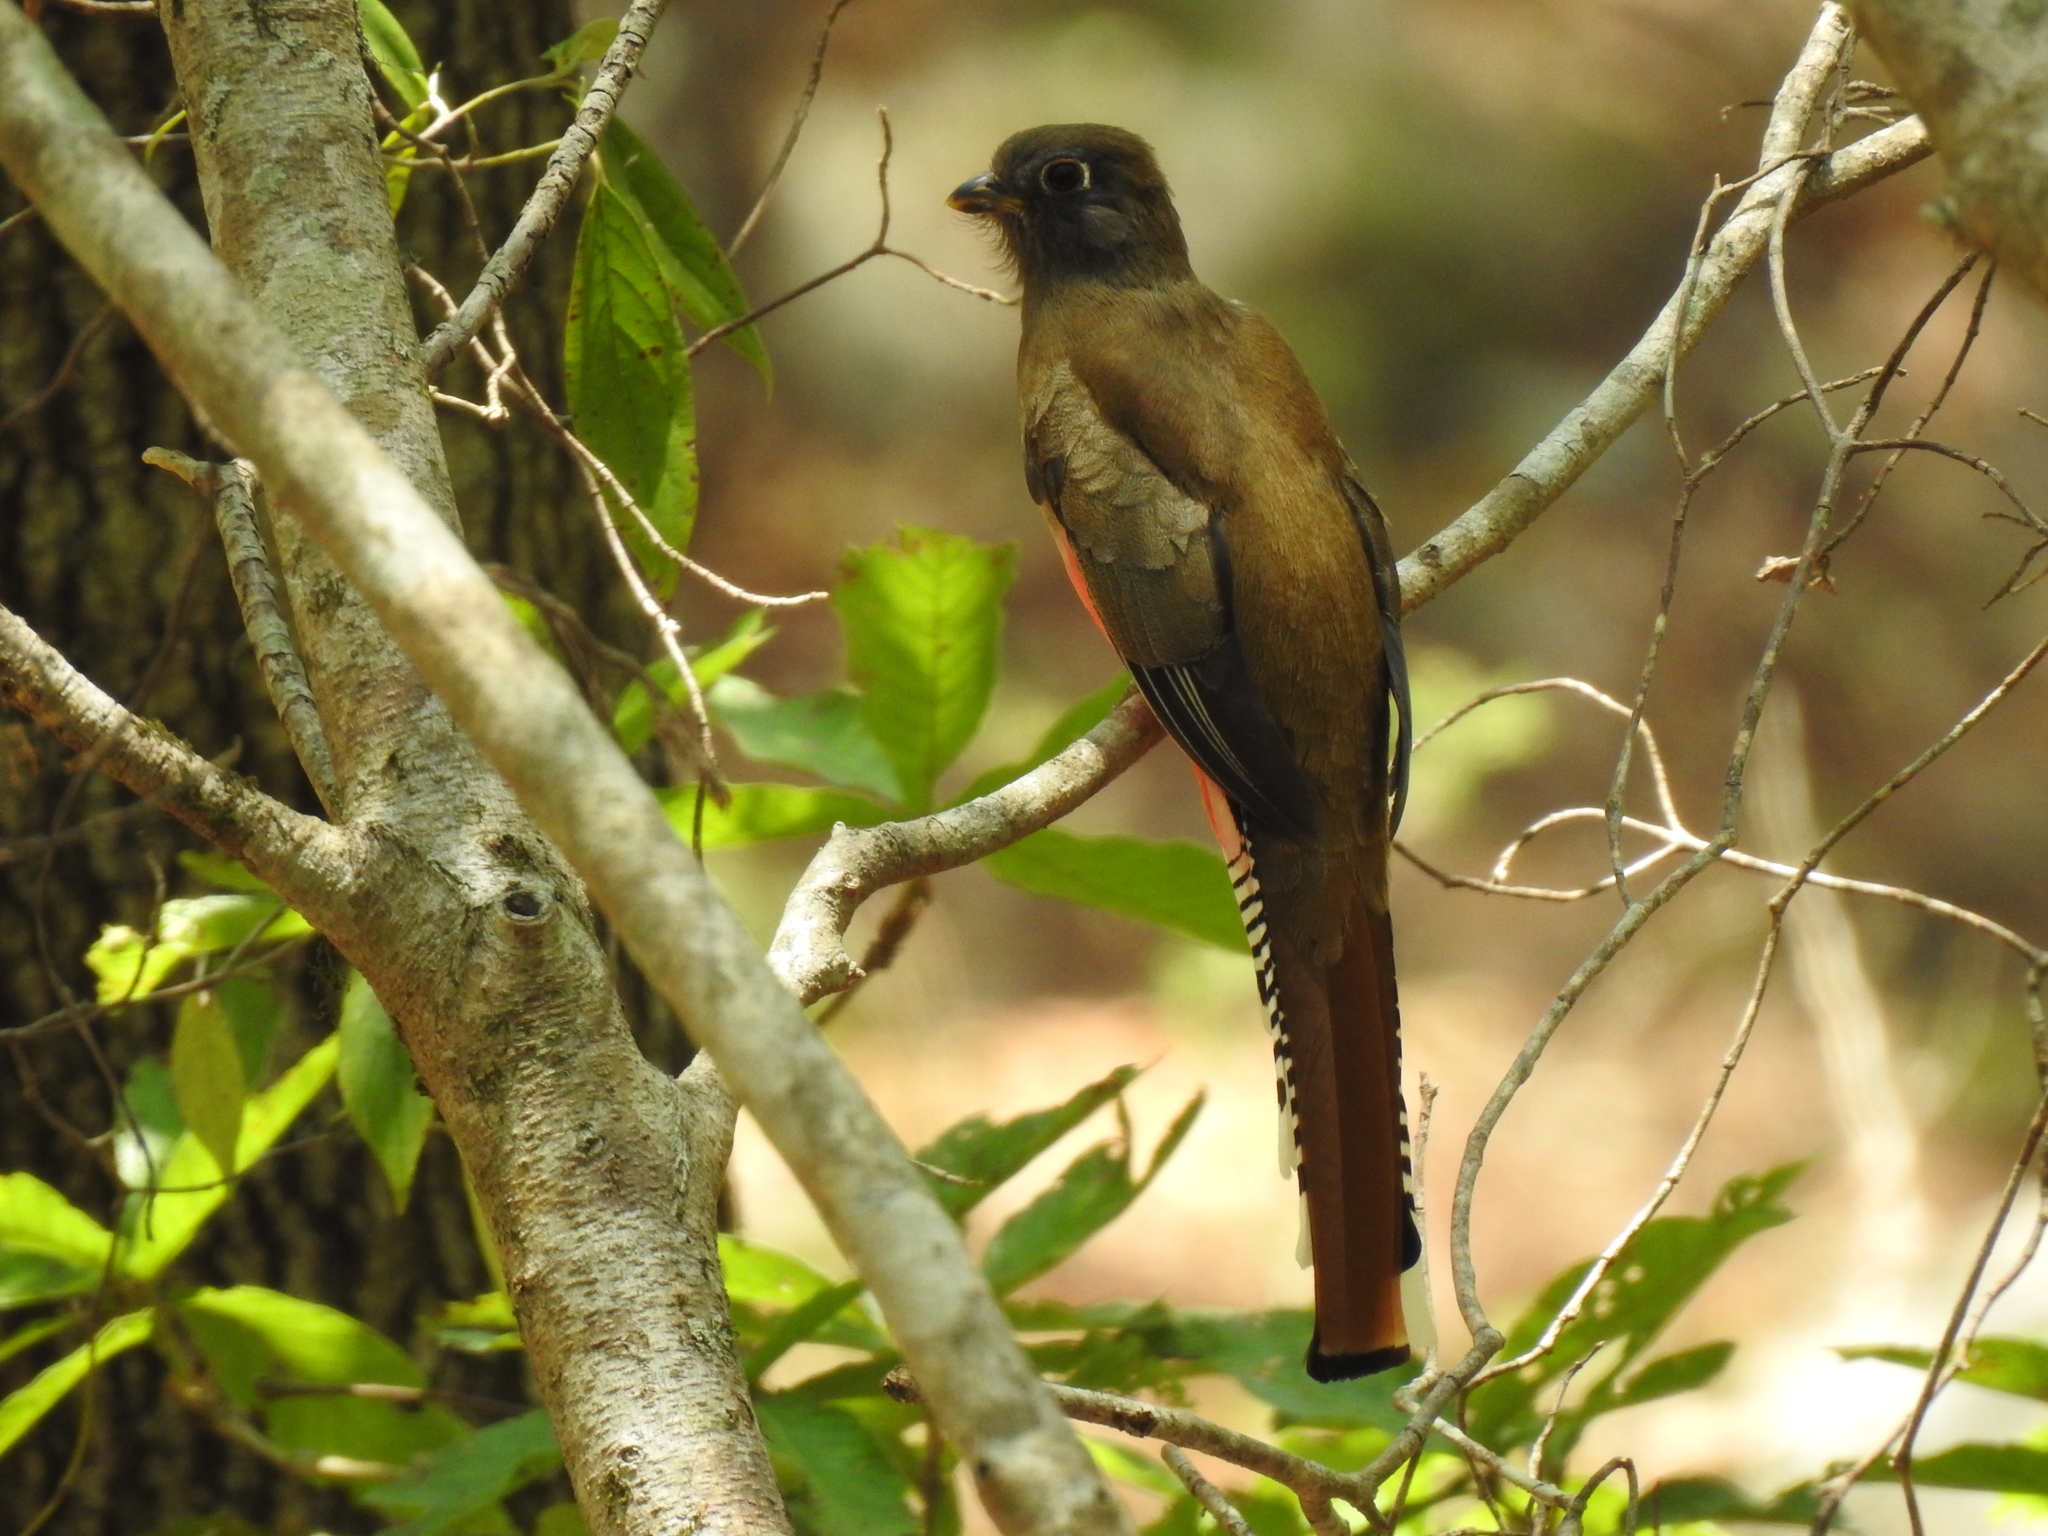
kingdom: Animalia
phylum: Chordata
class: Aves
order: Trogoniformes
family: Trogonidae
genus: Trogon
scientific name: Trogon mexicanus
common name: Mountain trogon
